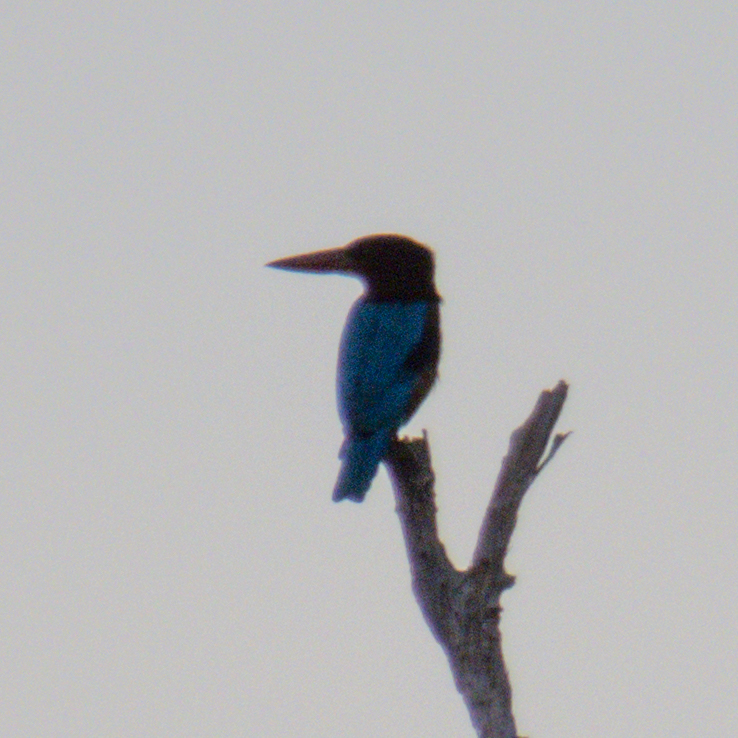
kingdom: Animalia
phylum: Chordata
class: Aves
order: Coraciiformes
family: Alcedinidae
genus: Halcyon
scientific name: Halcyon smyrnensis
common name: White-throated kingfisher
